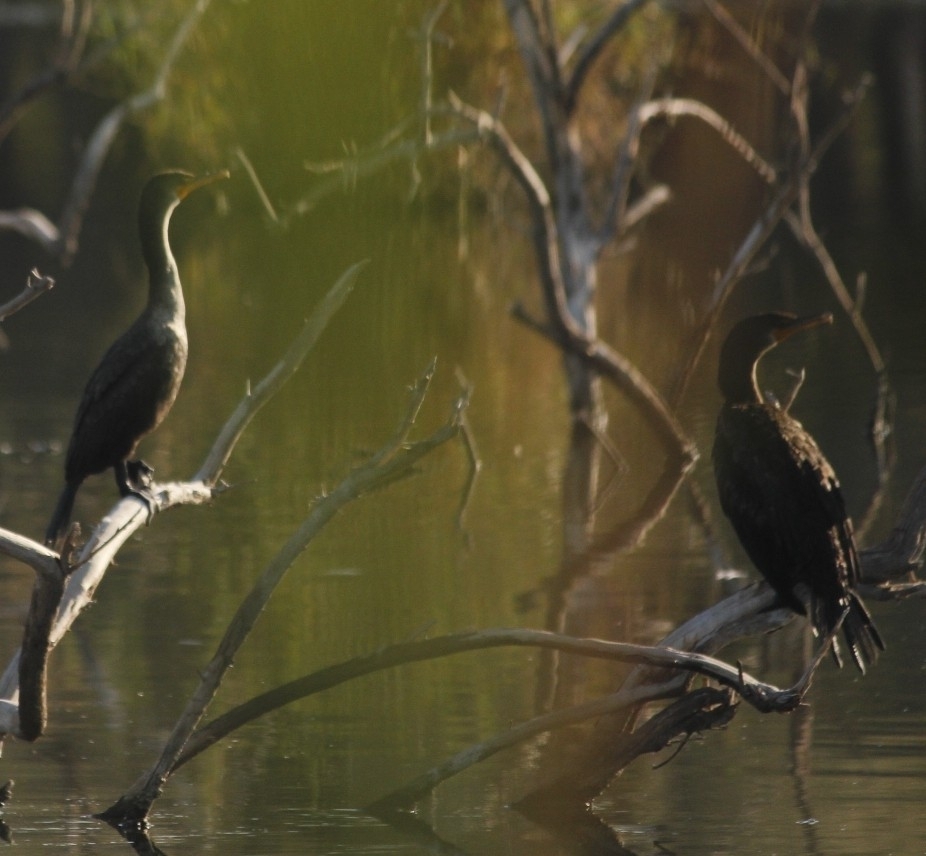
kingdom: Animalia
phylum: Chordata
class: Aves
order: Suliformes
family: Phalacrocoracidae
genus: Phalacrocorax
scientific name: Phalacrocorax auritus
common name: Double-crested cormorant
